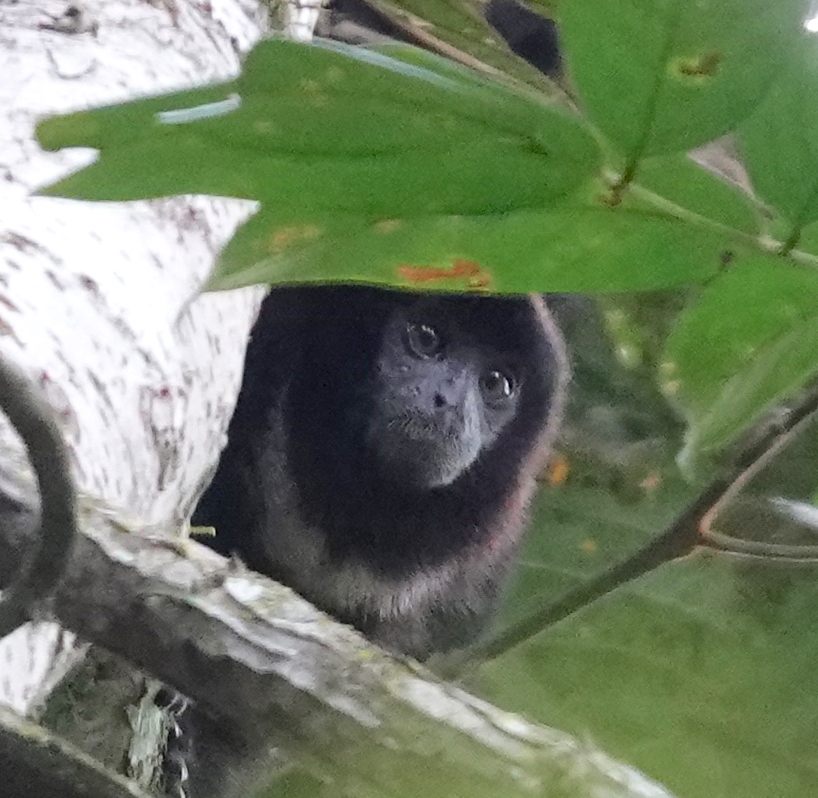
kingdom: Animalia
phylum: Chordata
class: Mammalia
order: Primates
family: Pitheciidae
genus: Cheracebus
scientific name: Cheracebus lucifer
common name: Yellow-handed titi
